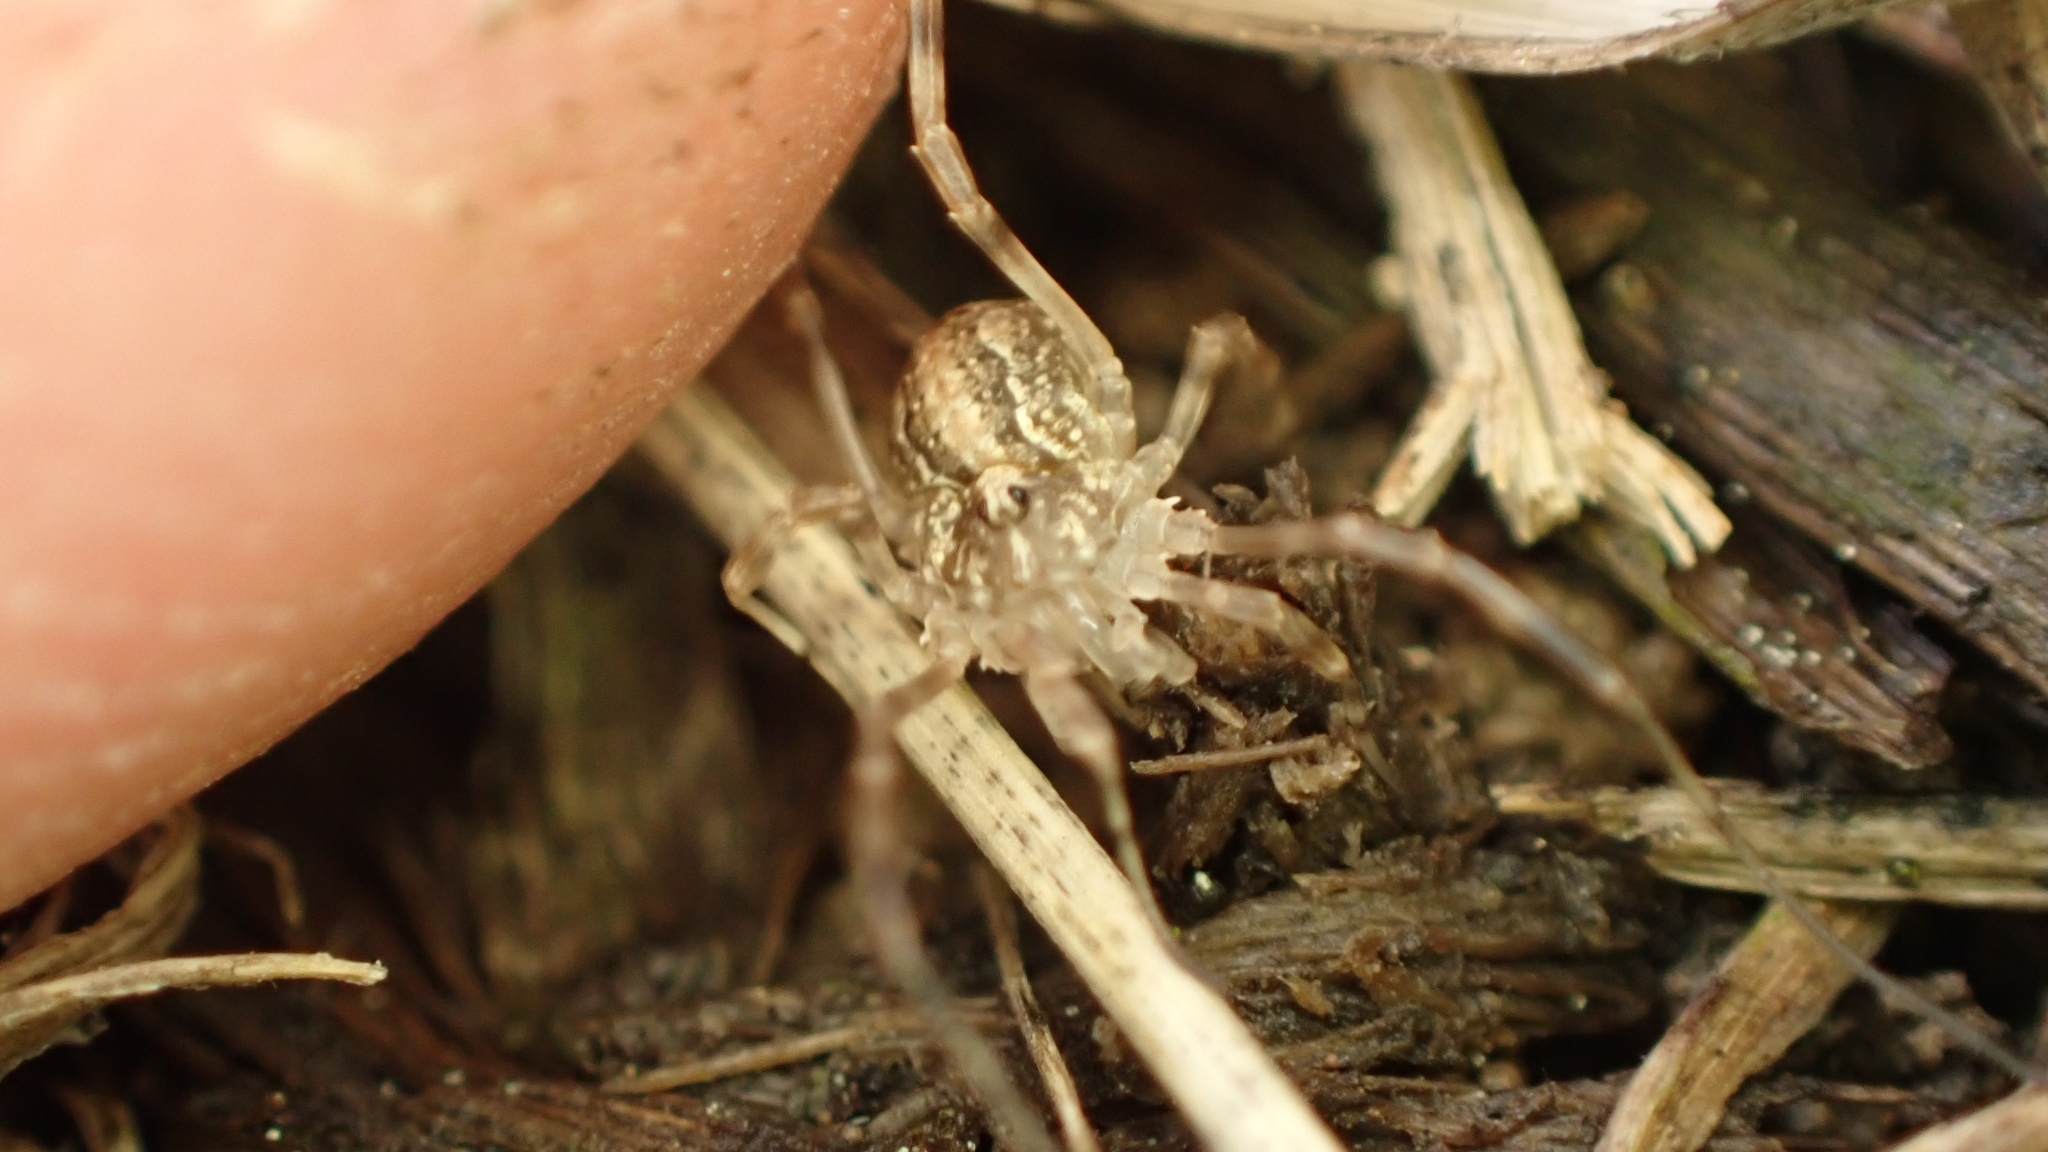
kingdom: Animalia
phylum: Arthropoda
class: Arachnida
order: Opiliones
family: Phalangiidae
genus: Odiellus
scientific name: Odiellus troguloides
